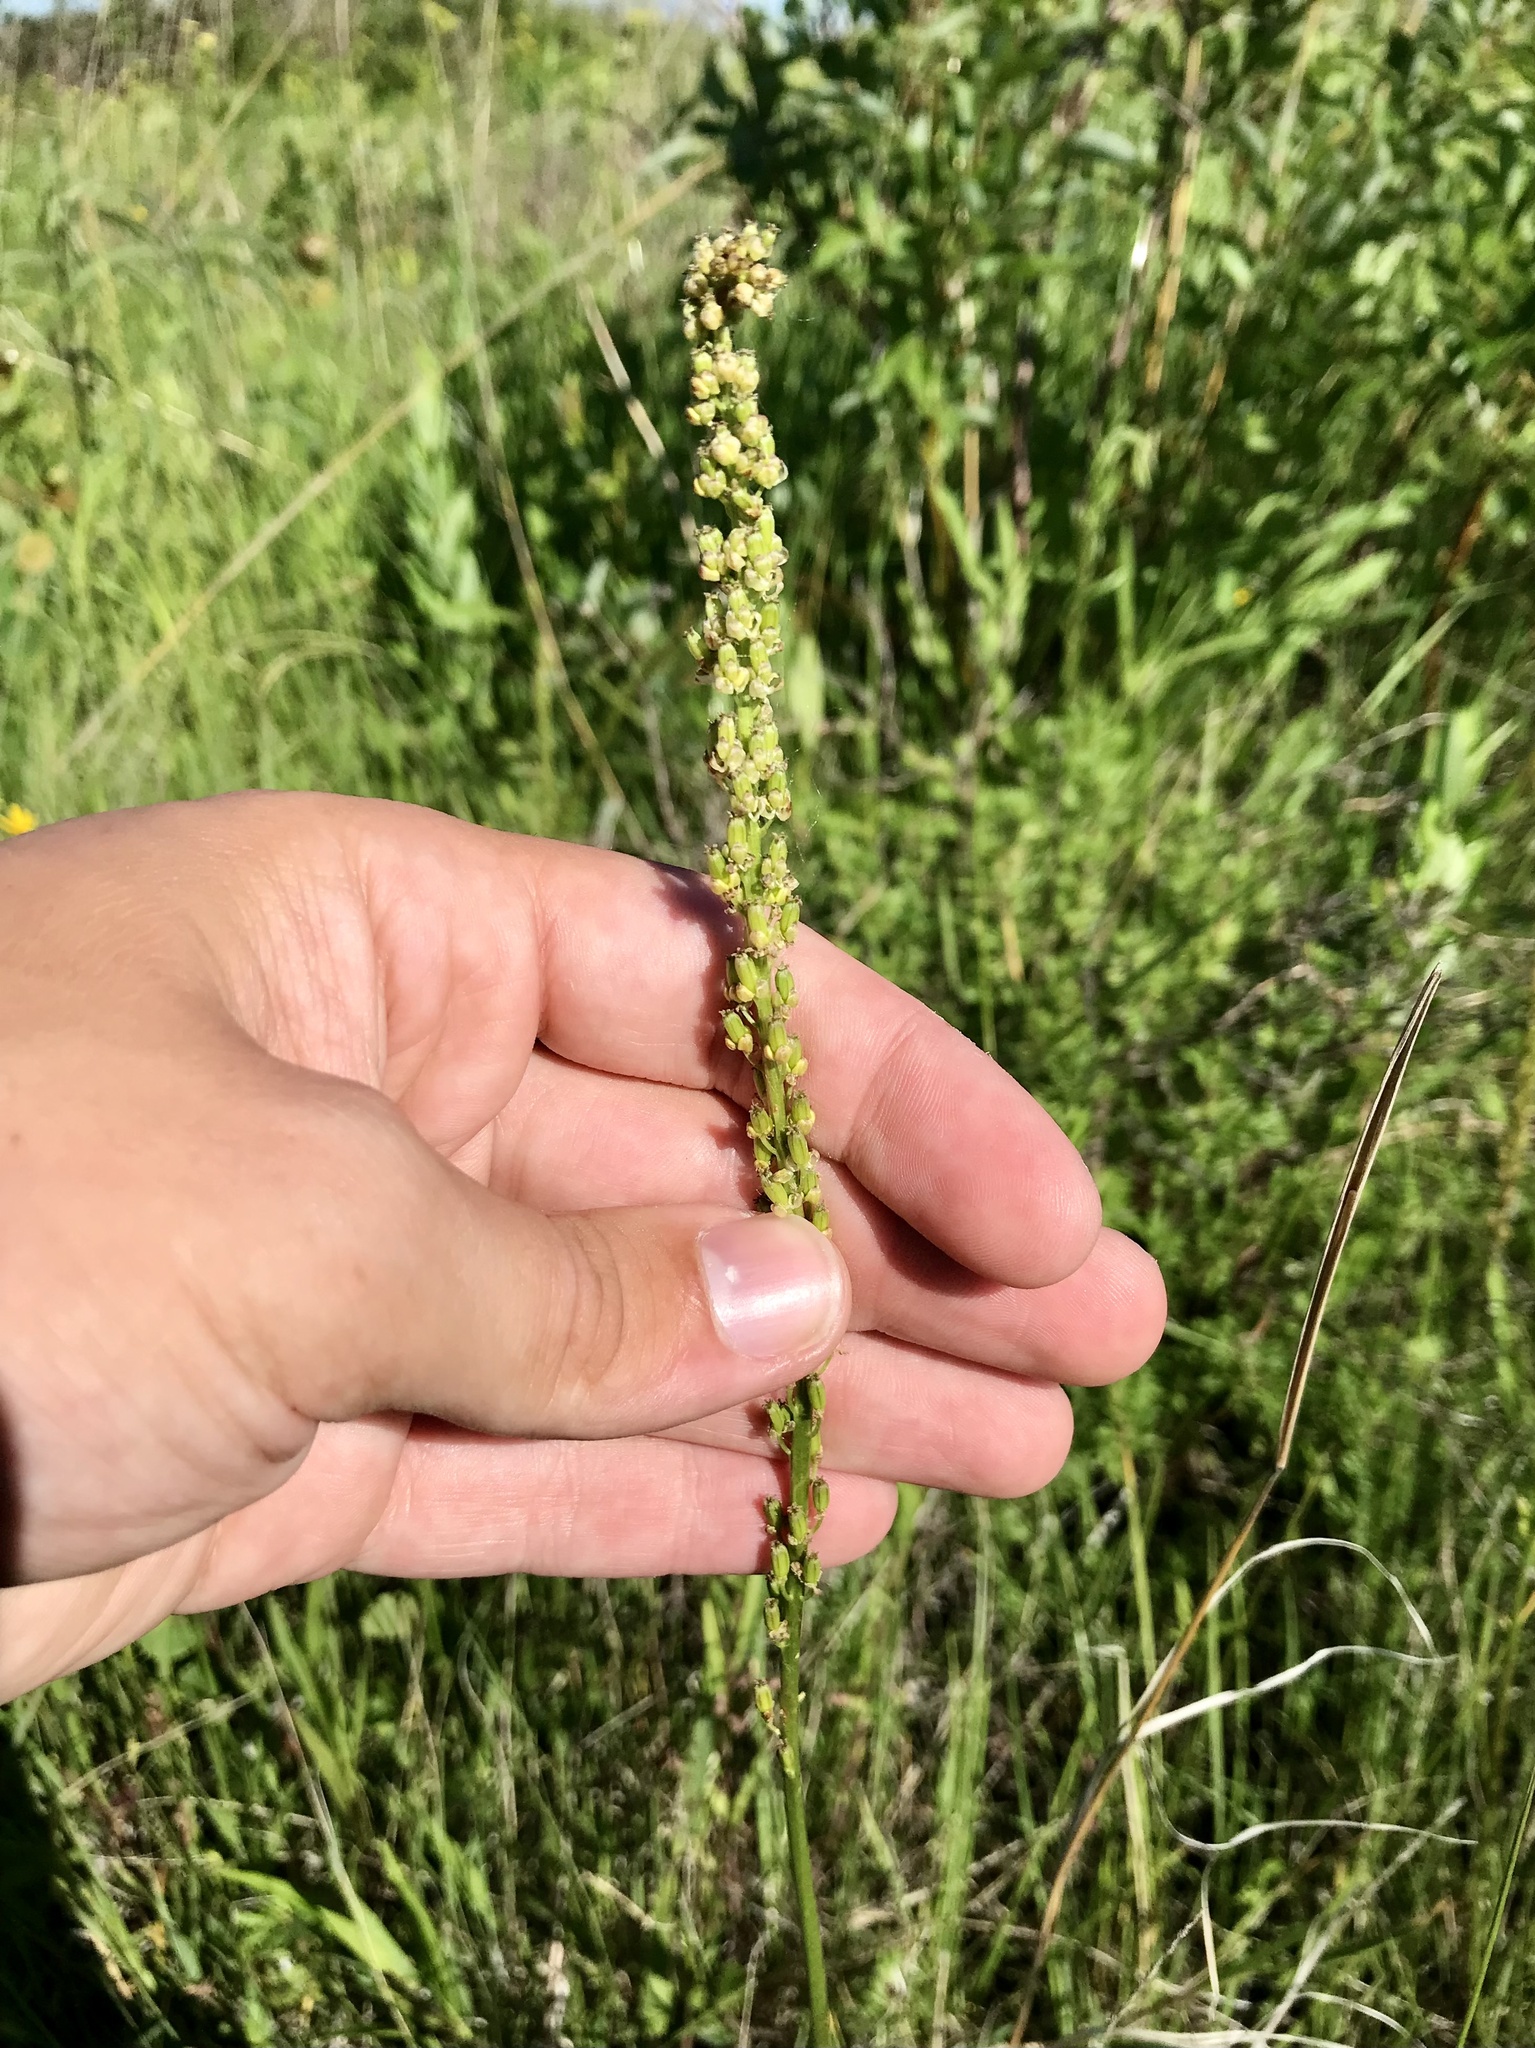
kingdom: Plantae
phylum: Tracheophyta
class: Liliopsida
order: Alismatales
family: Juncaginaceae
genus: Triglochin
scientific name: Triglochin maritima
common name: Sea arrowgrass
